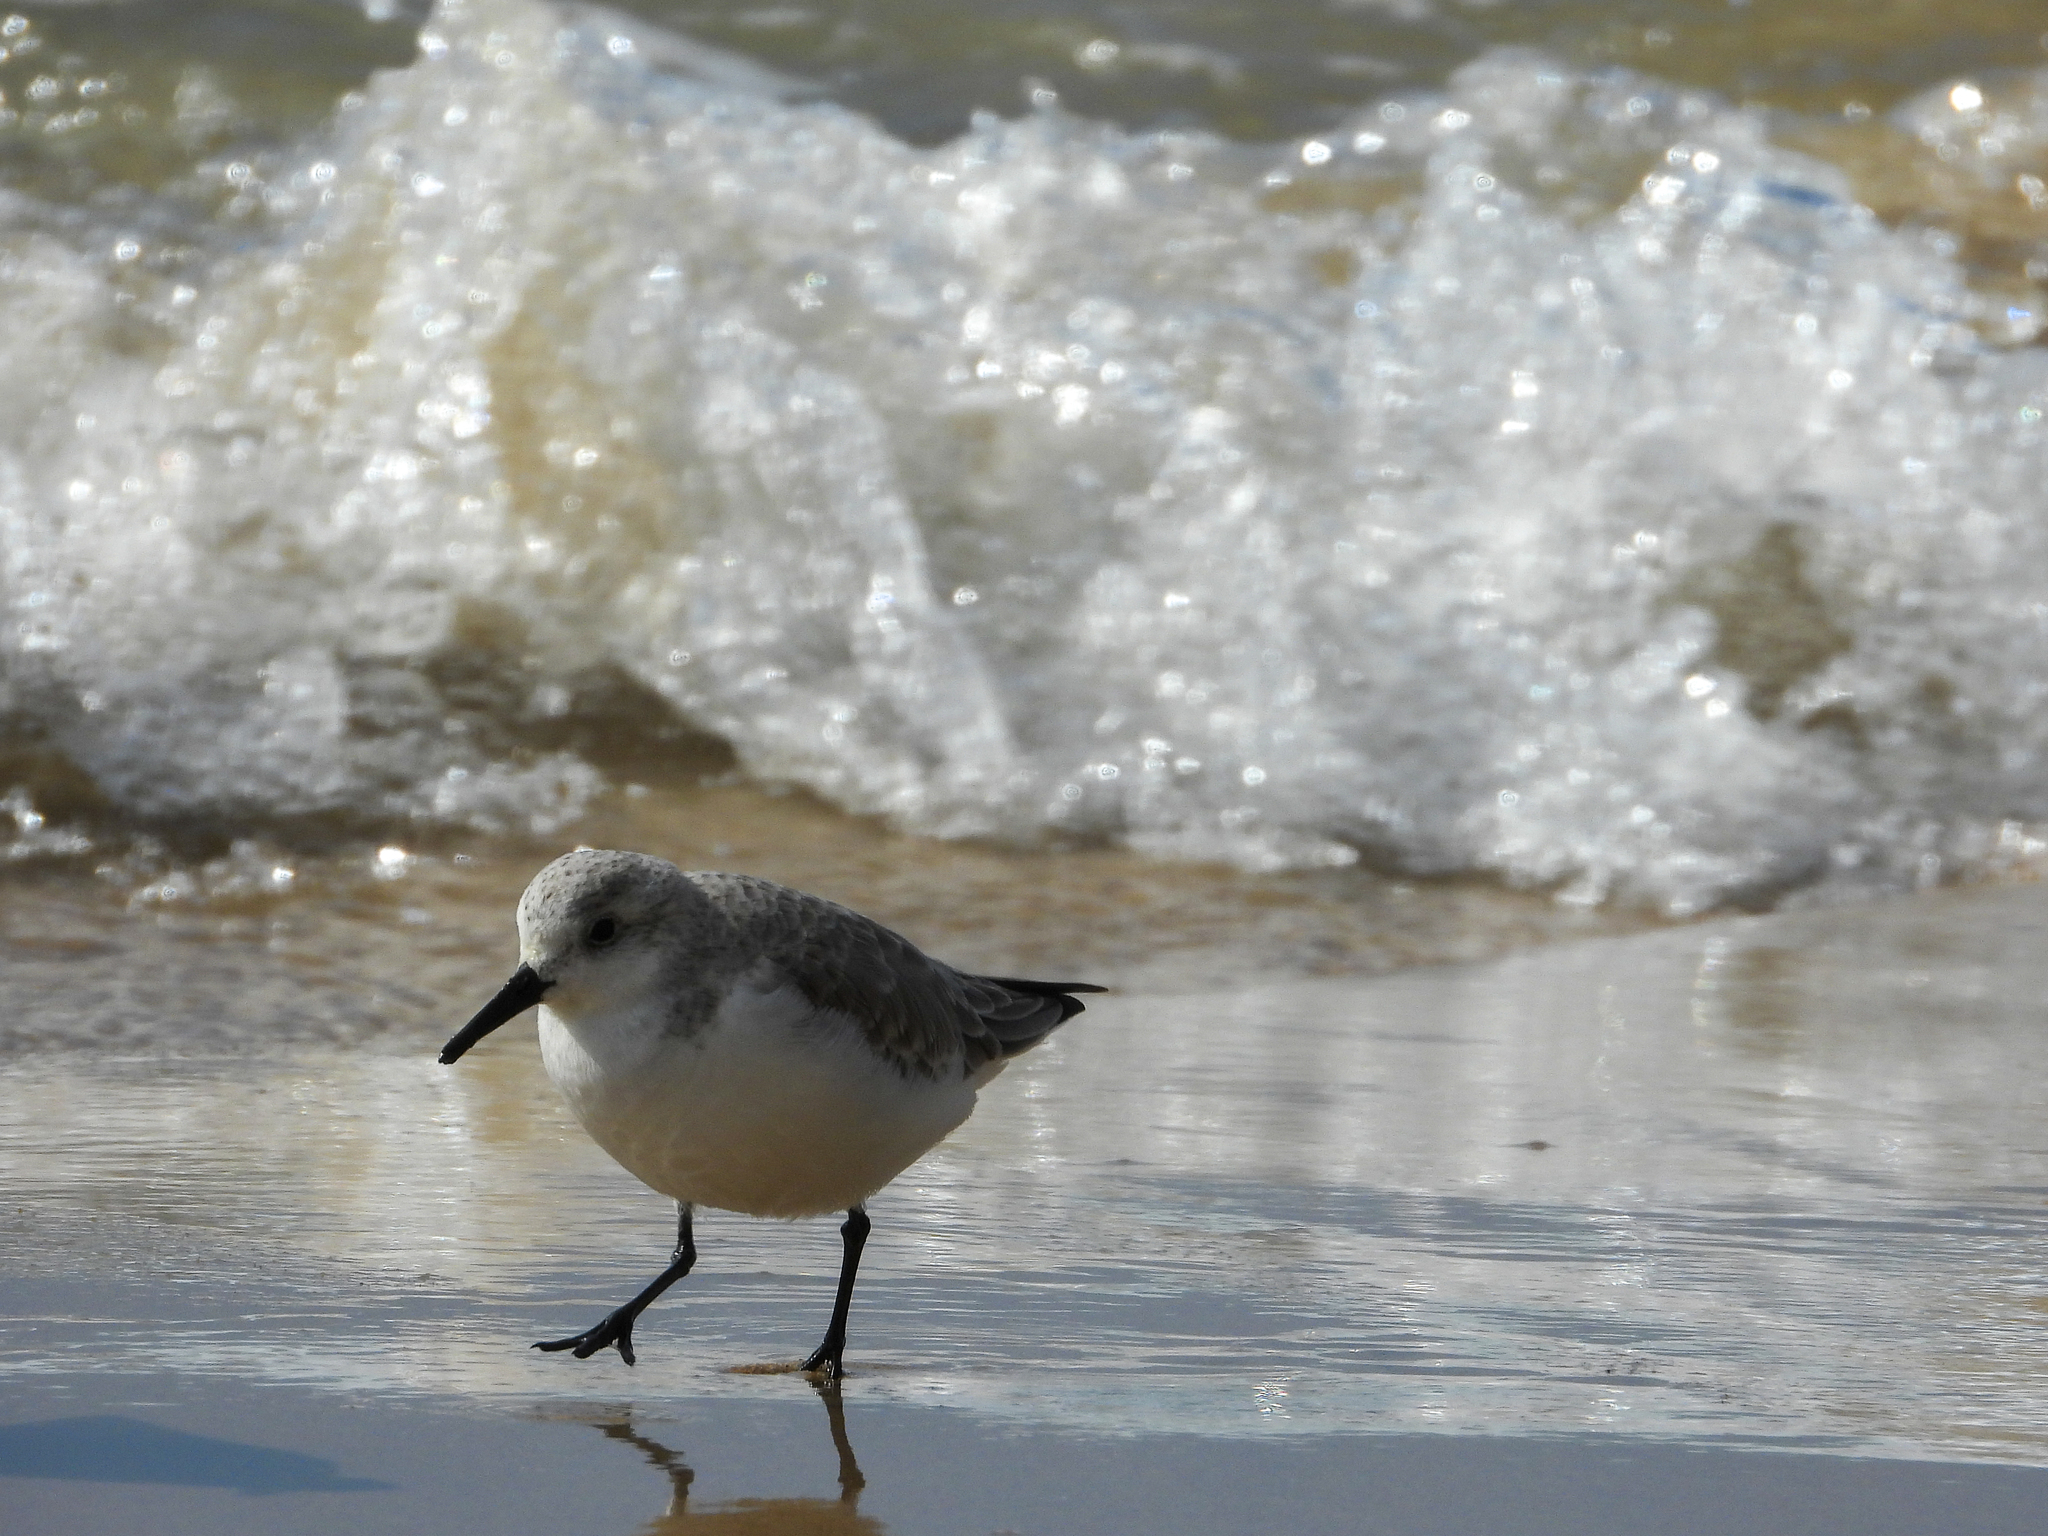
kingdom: Animalia
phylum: Chordata
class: Aves
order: Charadriiformes
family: Scolopacidae
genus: Calidris
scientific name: Calidris alba
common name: Sanderling
